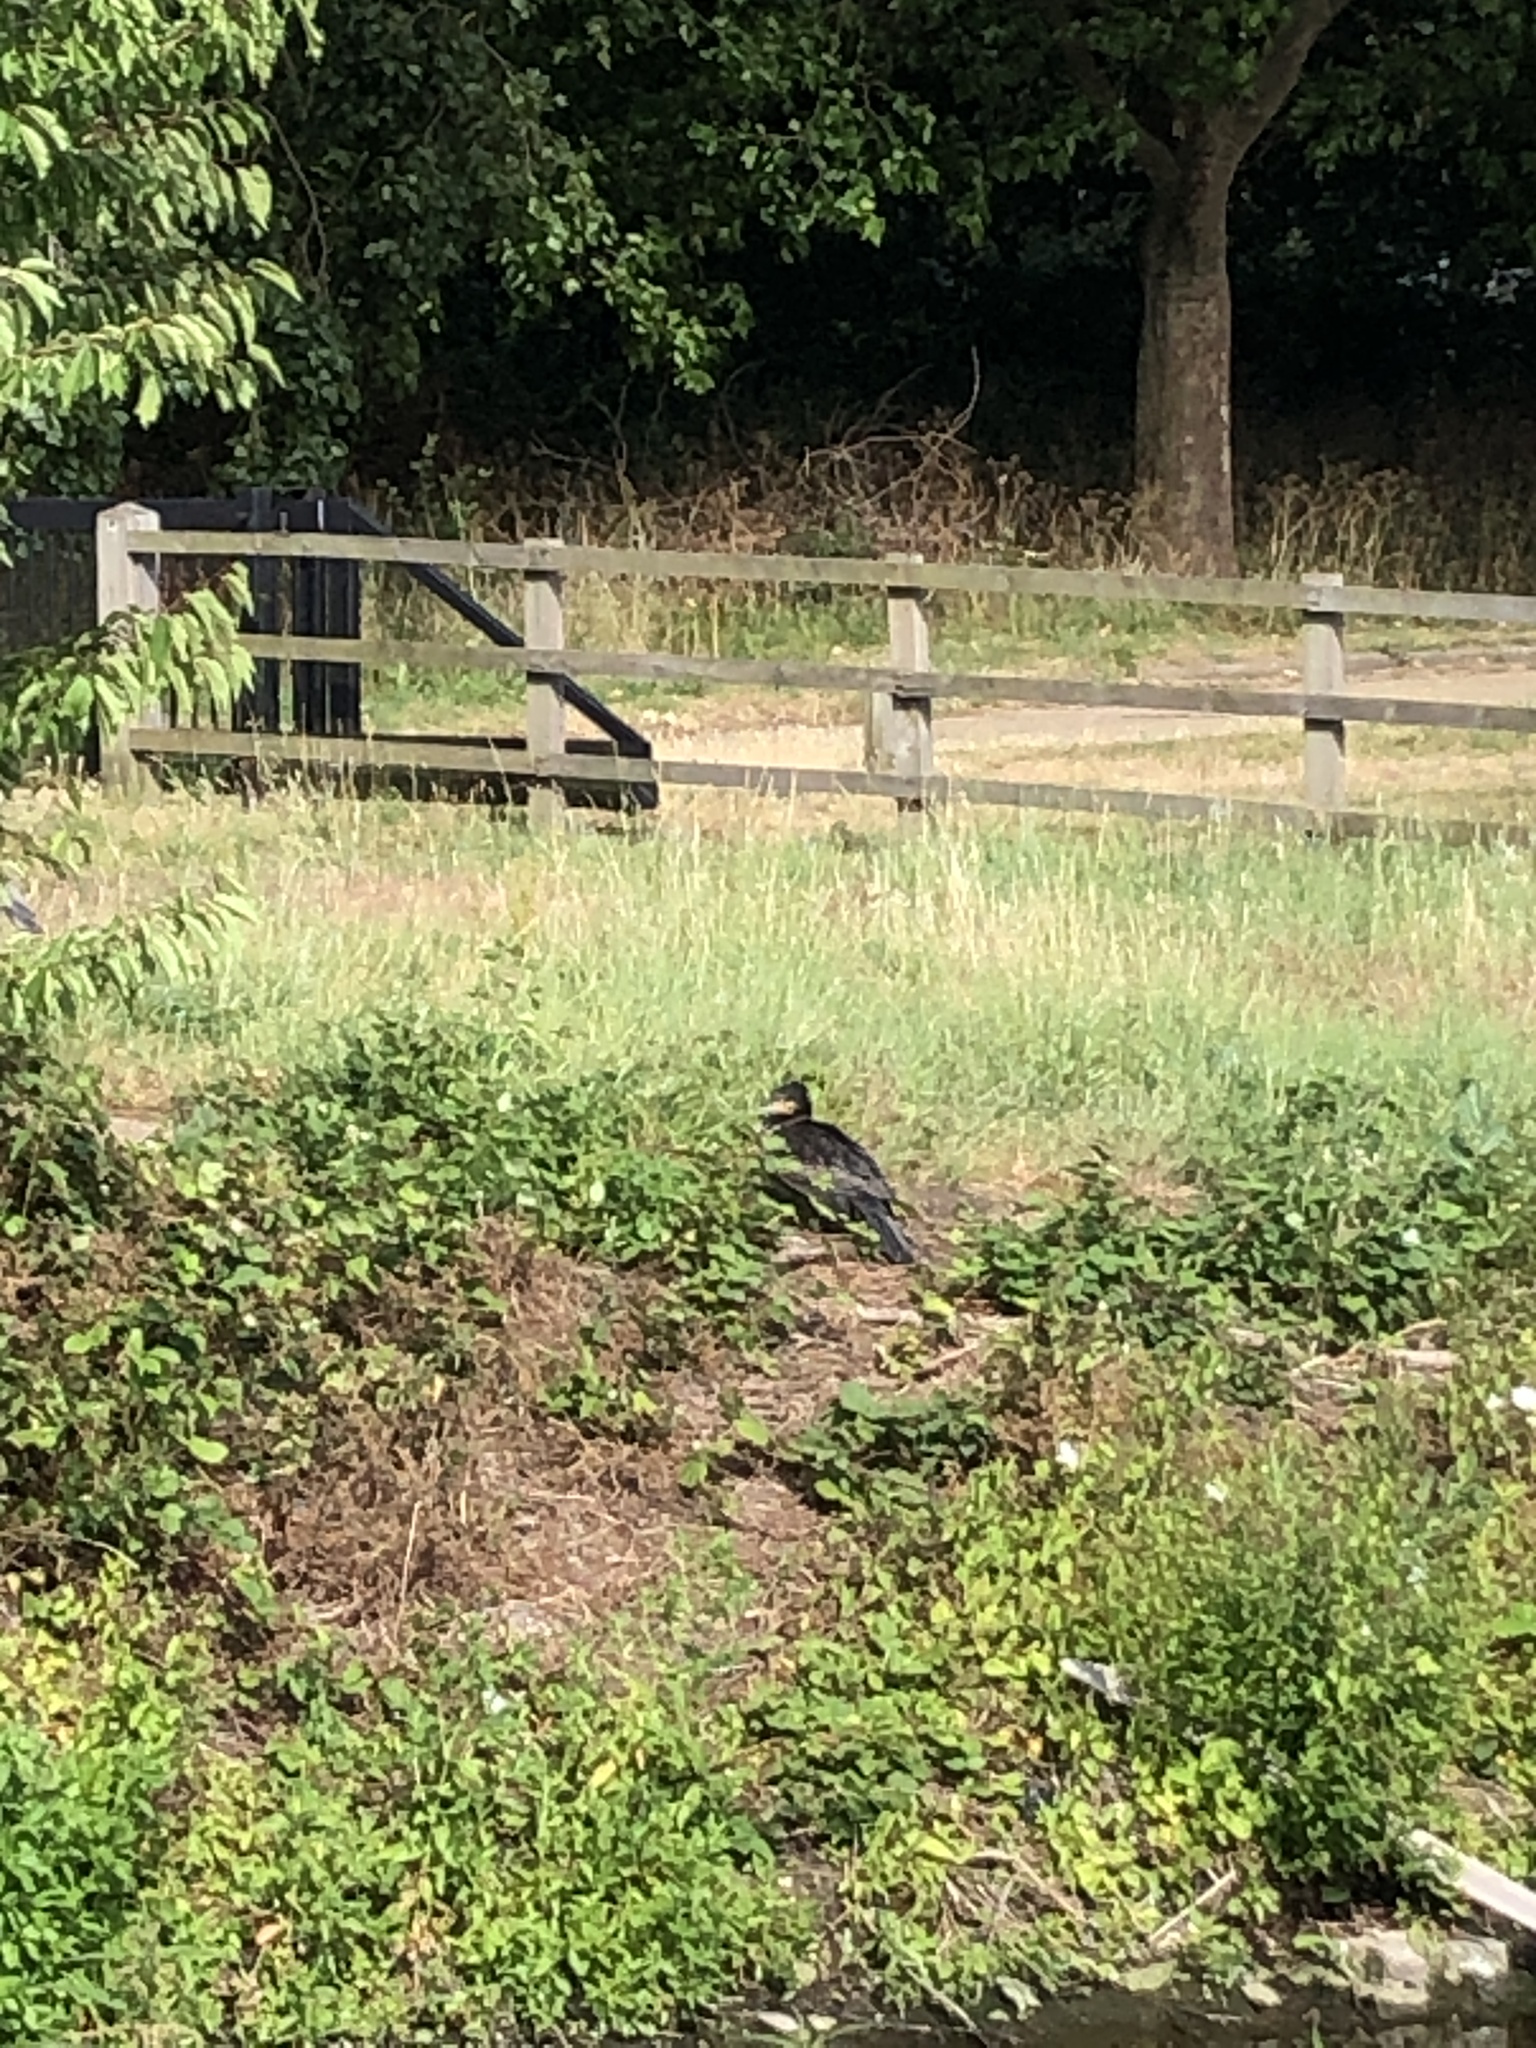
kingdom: Animalia
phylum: Chordata
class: Aves
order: Suliformes
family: Phalacrocoracidae
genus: Phalacrocorax
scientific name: Phalacrocorax carbo
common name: Great cormorant
